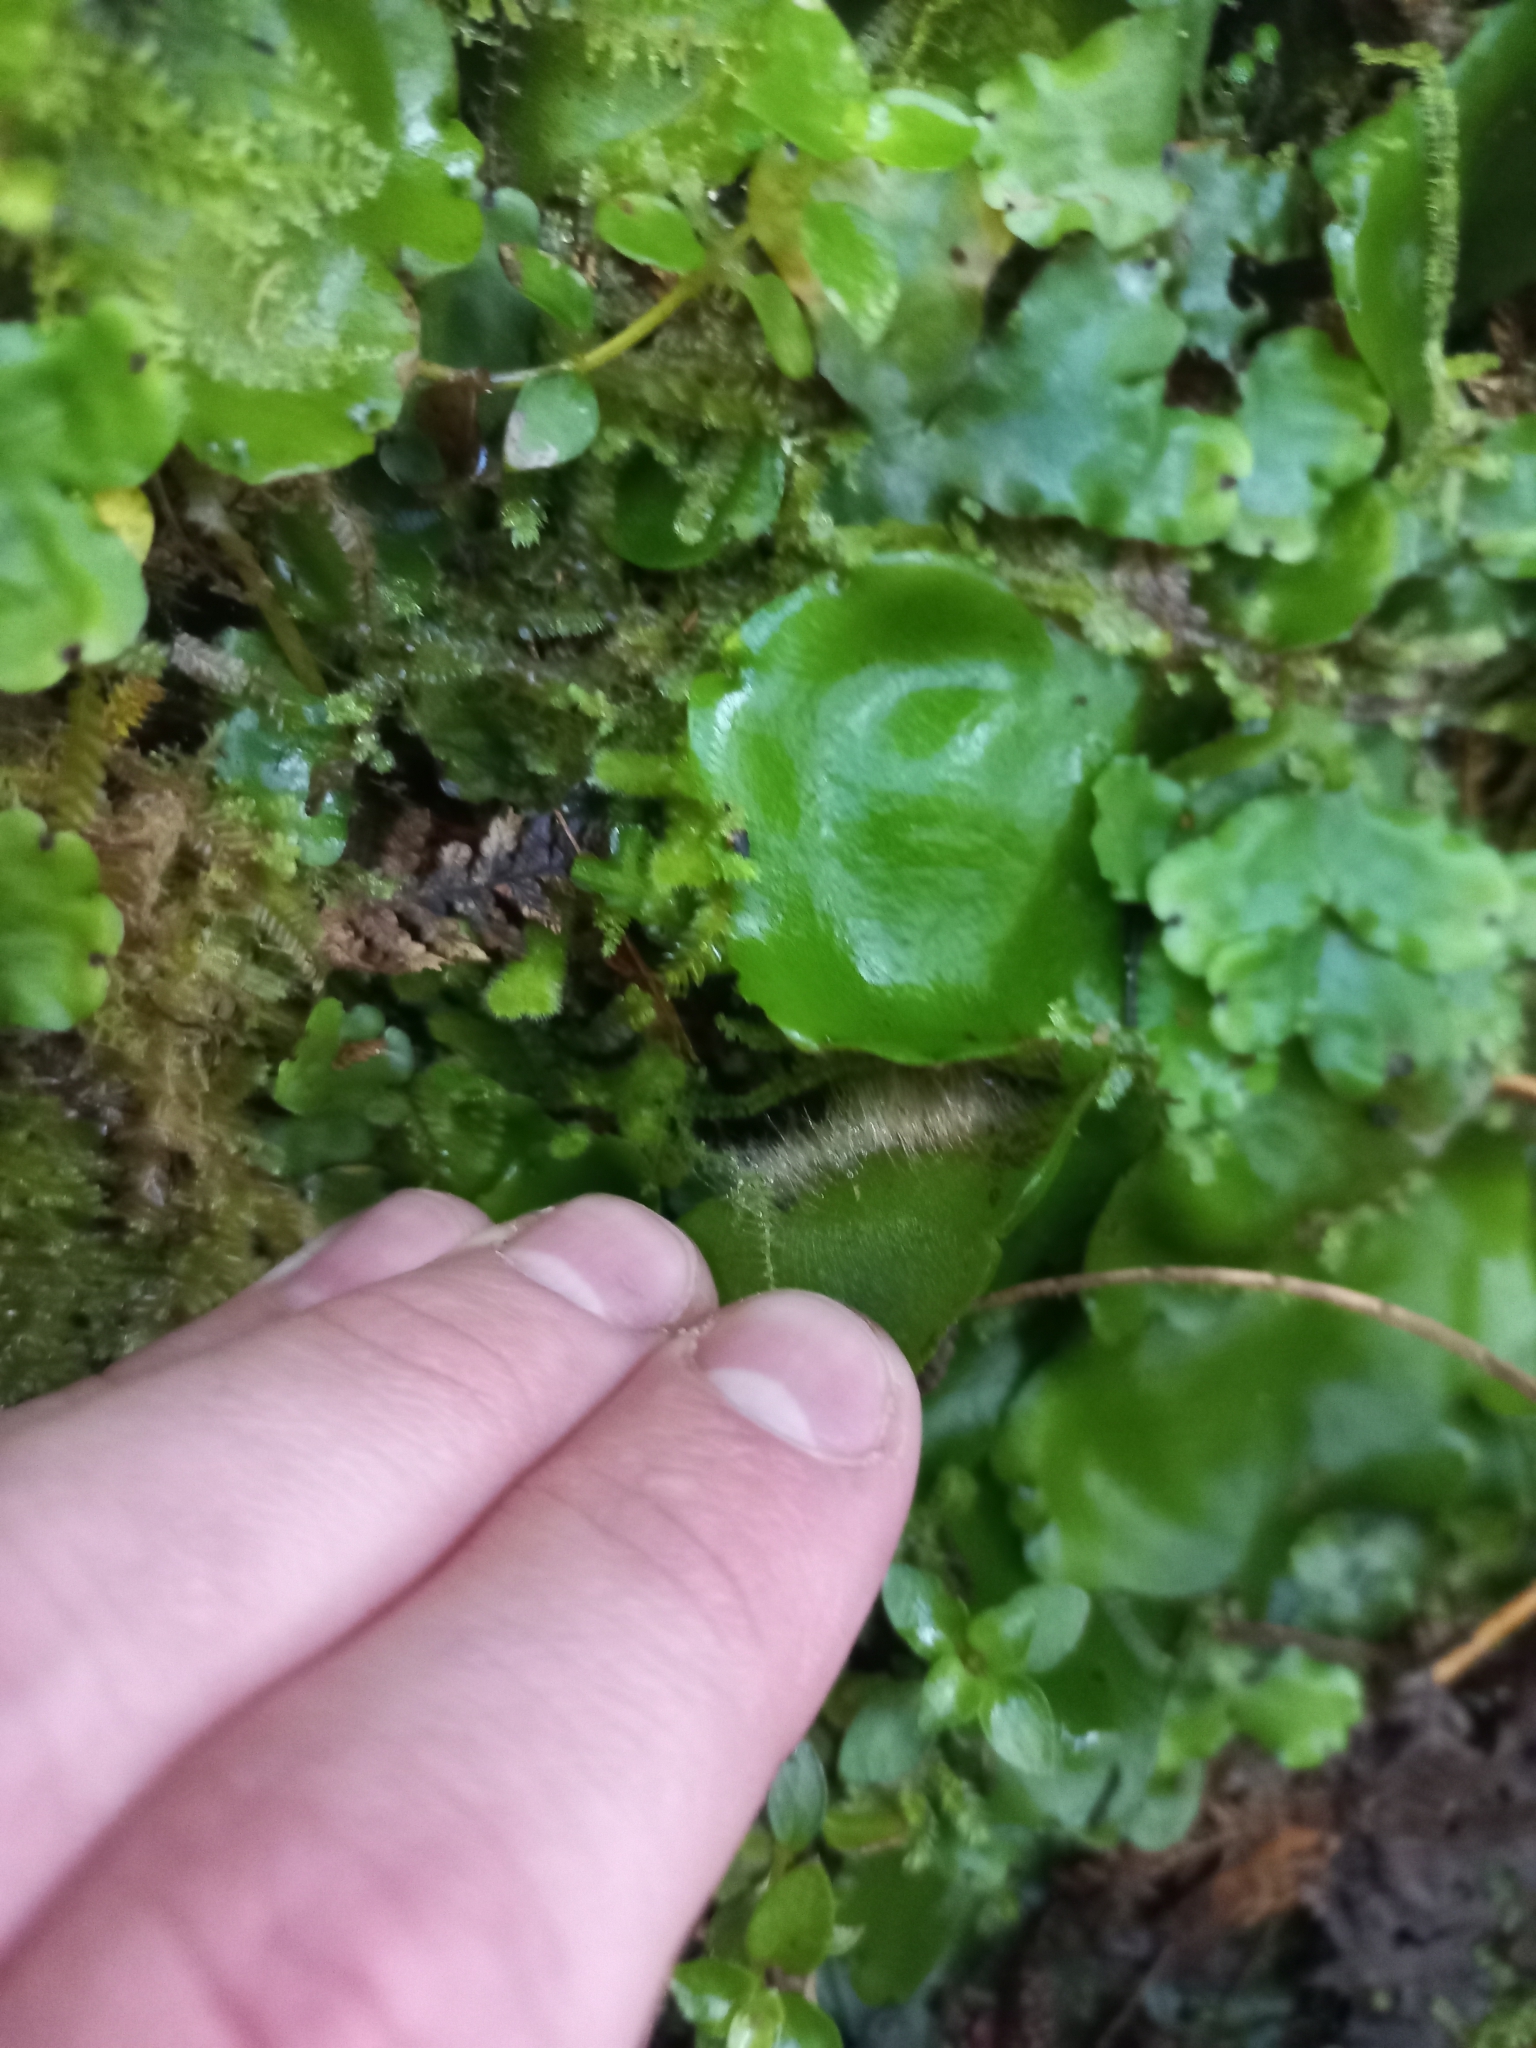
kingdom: Plantae
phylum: Marchantiophyta
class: Marchantiopsida
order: Marchantiales
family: Monocleaceae
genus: Monoclea
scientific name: Monoclea forsteri
